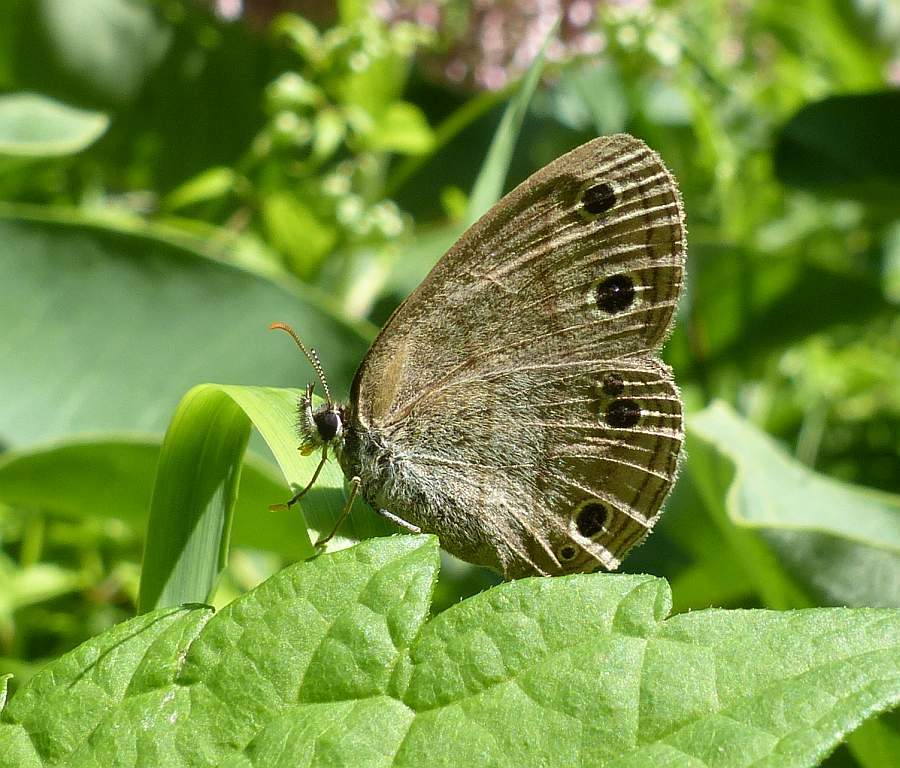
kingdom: Animalia
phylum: Arthropoda
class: Insecta
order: Lepidoptera
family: Nymphalidae
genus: Euptychia
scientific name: Euptychia cymela
